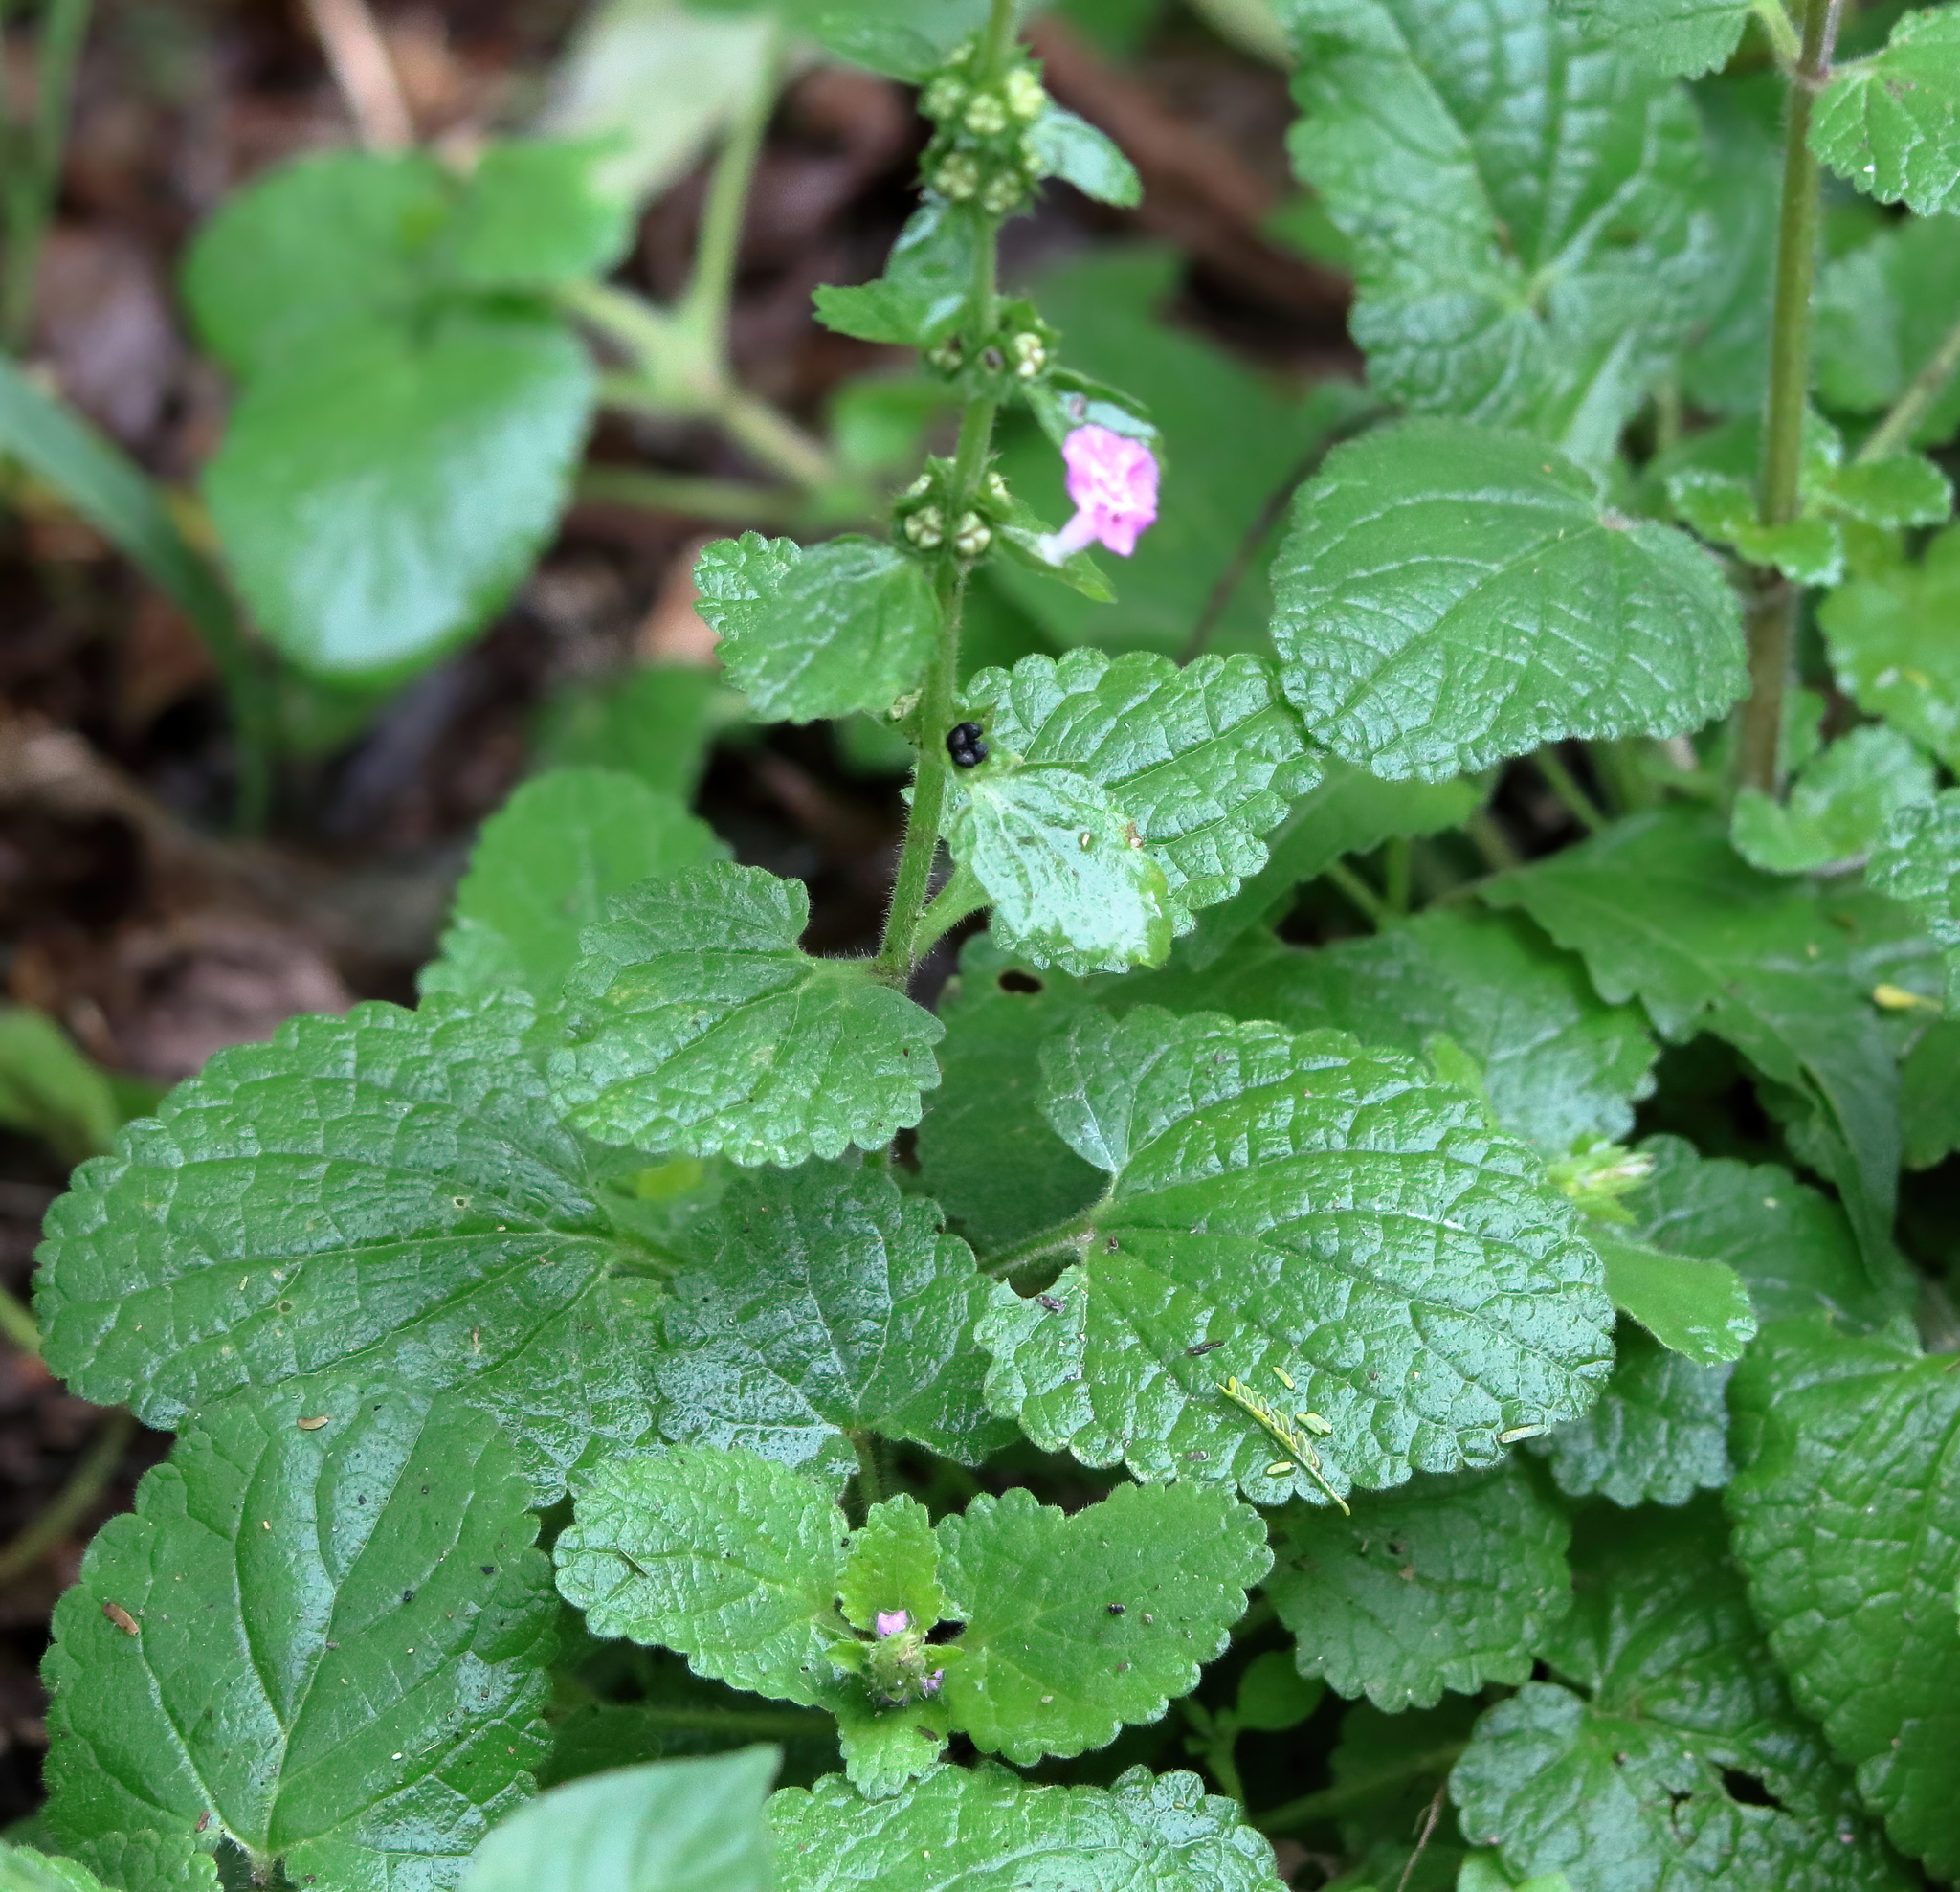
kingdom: Plantae
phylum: Tracheophyta
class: Magnoliopsida
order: Lamiales
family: Lamiaceae
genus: Stachys
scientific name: Stachys drummondii
